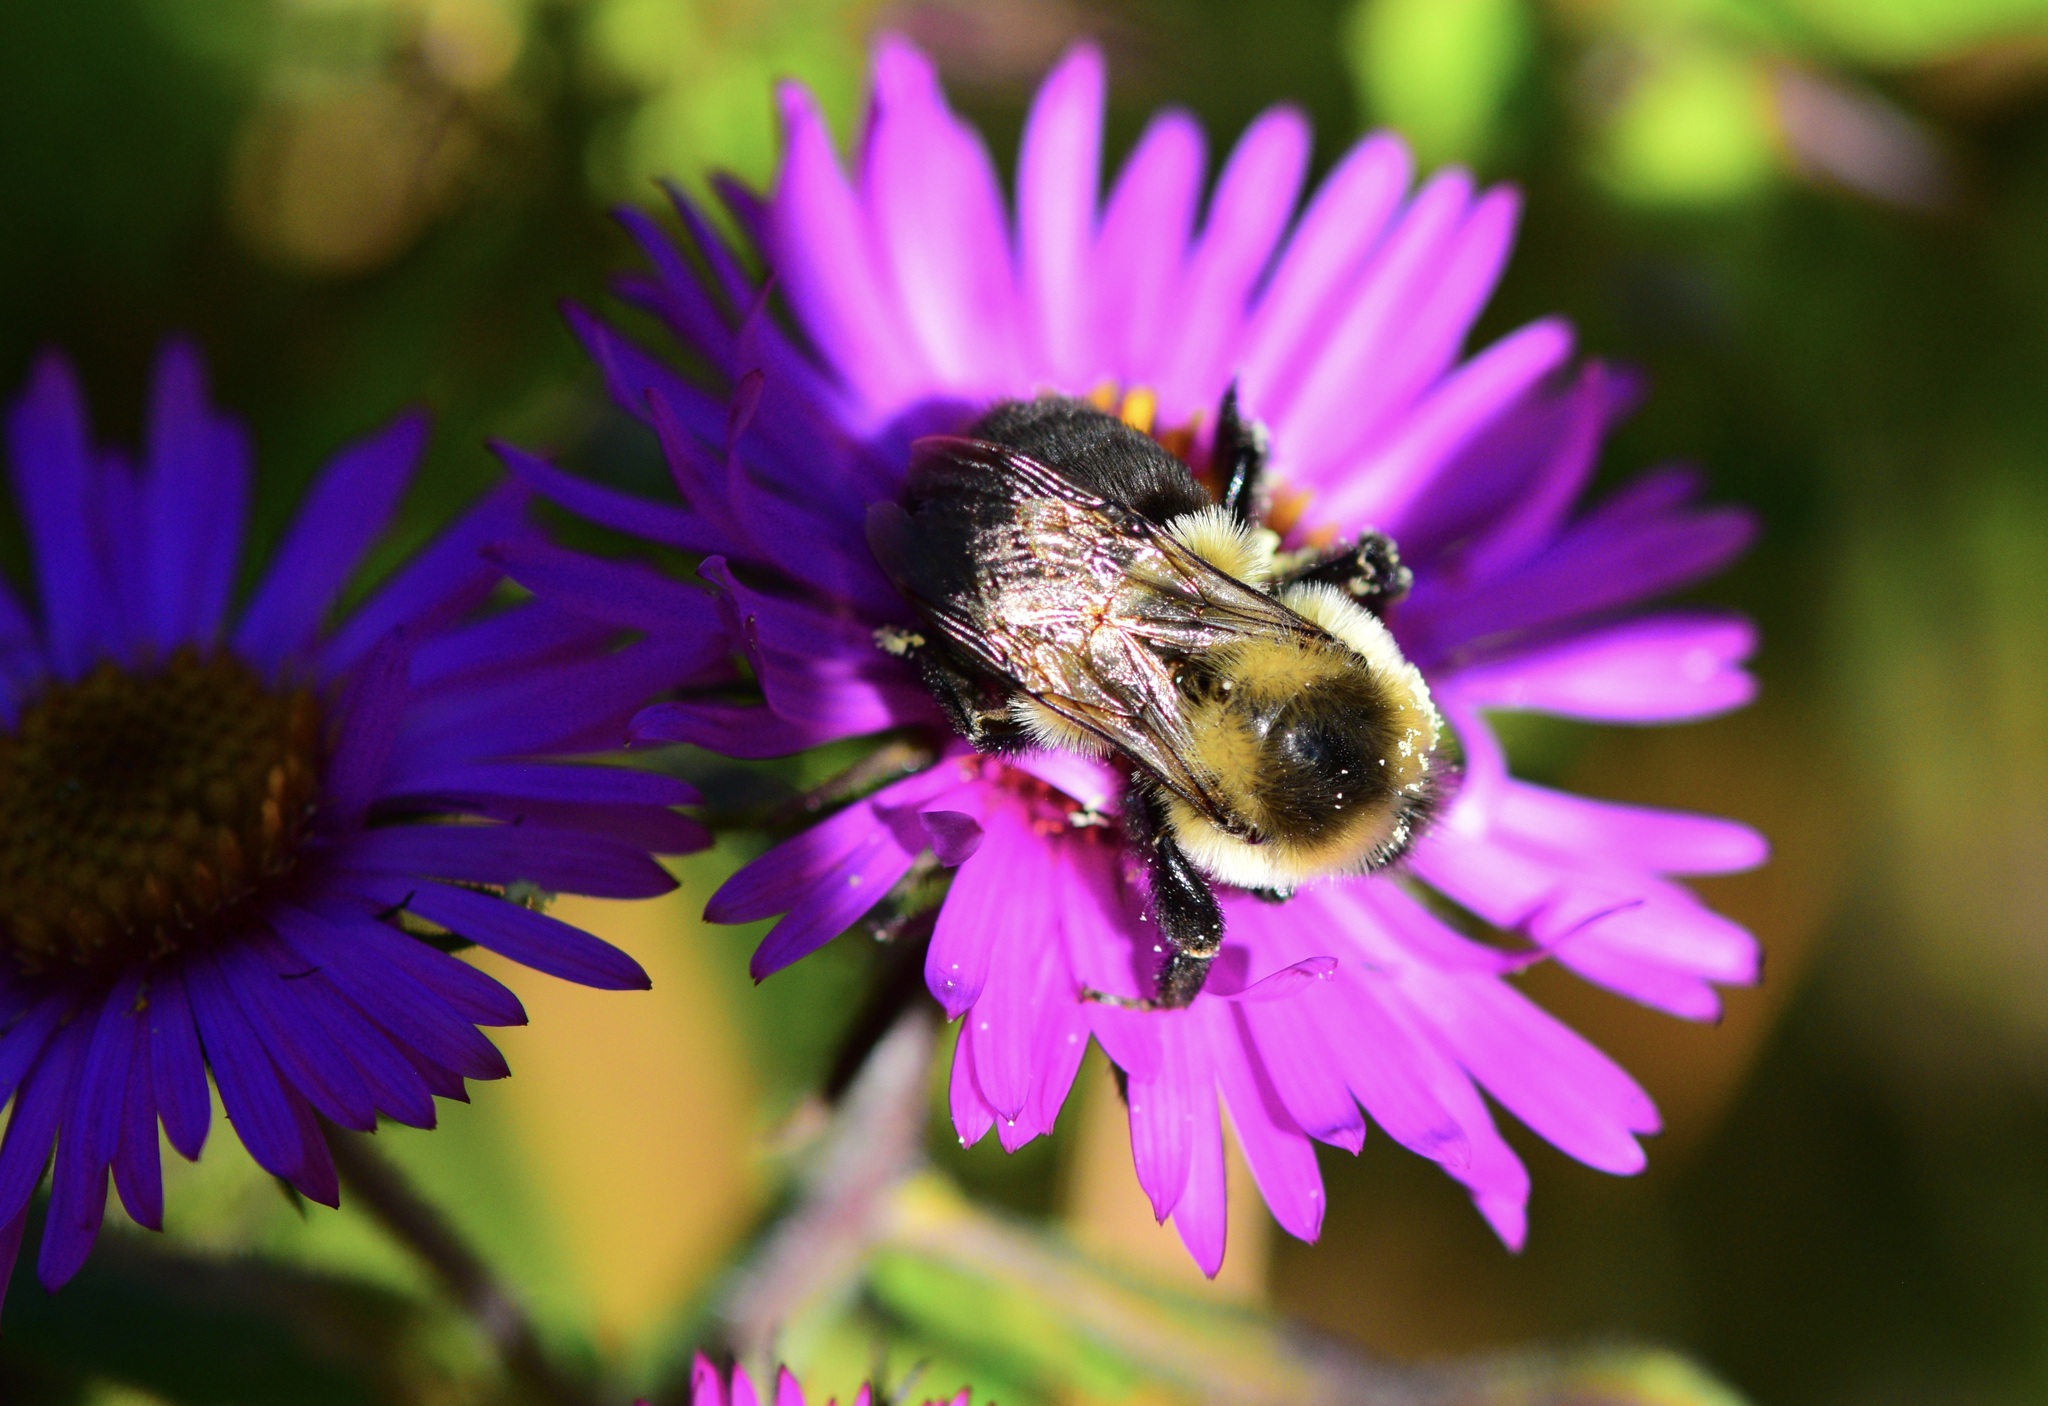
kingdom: Animalia
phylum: Arthropoda
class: Insecta
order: Hymenoptera
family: Apidae
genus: Bombus
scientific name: Bombus impatiens
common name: Common eastern bumble bee
